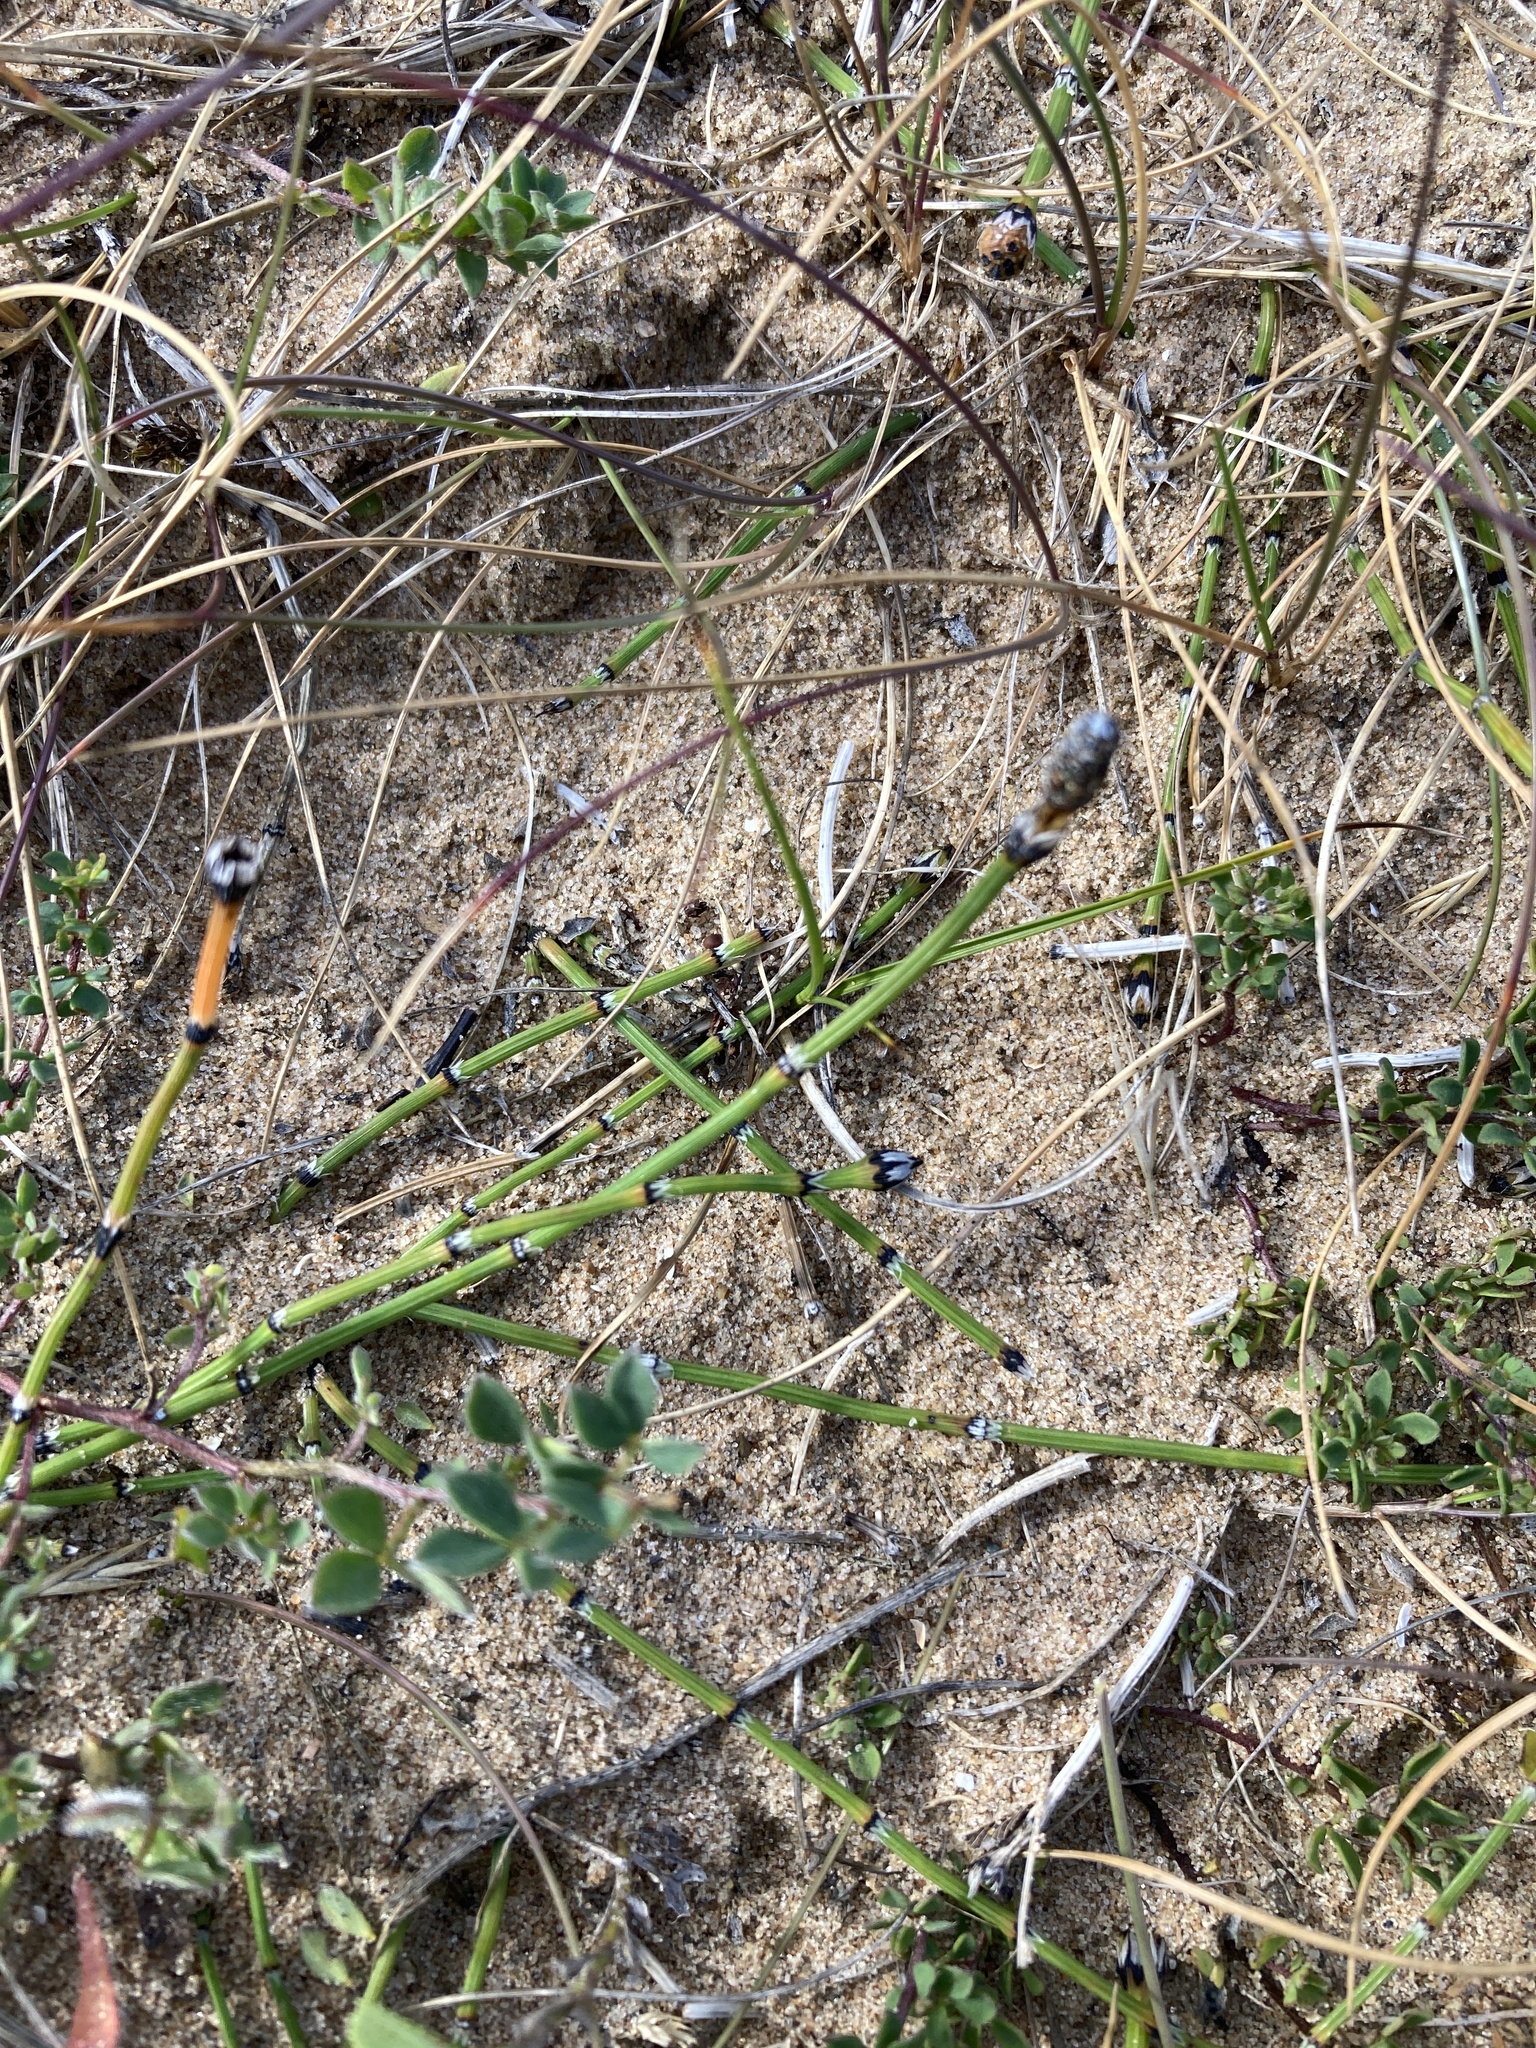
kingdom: Plantae
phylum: Tracheophyta
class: Polypodiopsida
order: Equisetales
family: Equisetaceae
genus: Equisetum
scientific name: Equisetum variegatum
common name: Variegated horsetail
